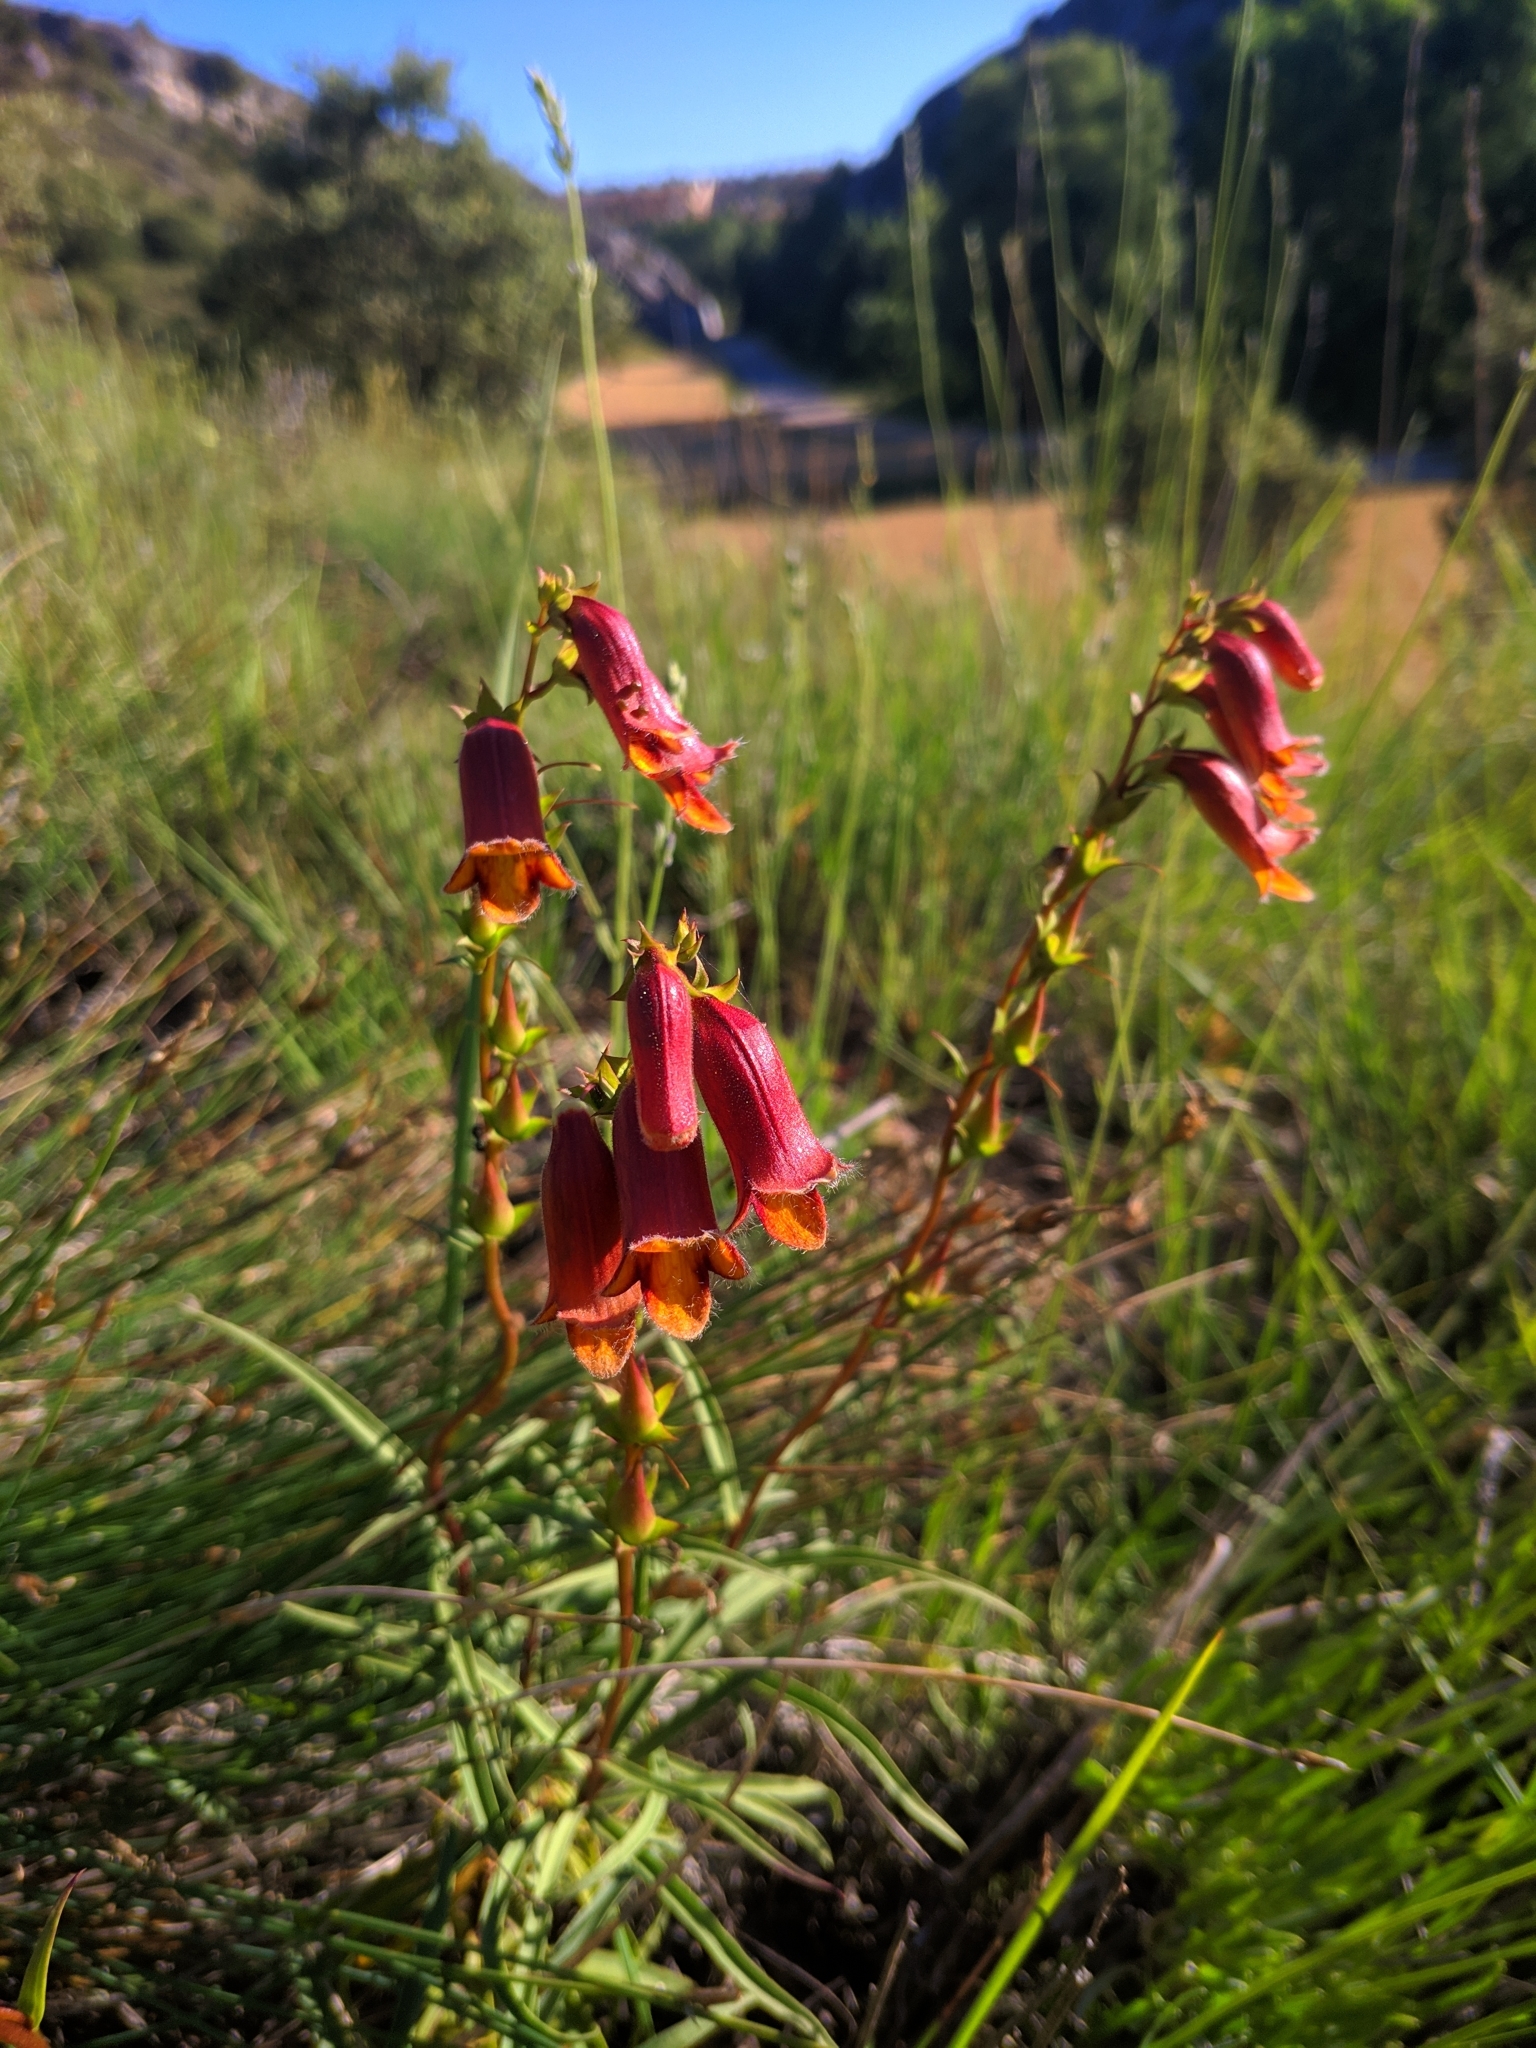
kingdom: Plantae
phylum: Tracheophyta
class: Magnoliopsida
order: Lamiales
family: Plantaginaceae
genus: Digitalis
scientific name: Digitalis obscura
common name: Willow-leaf foxglove
